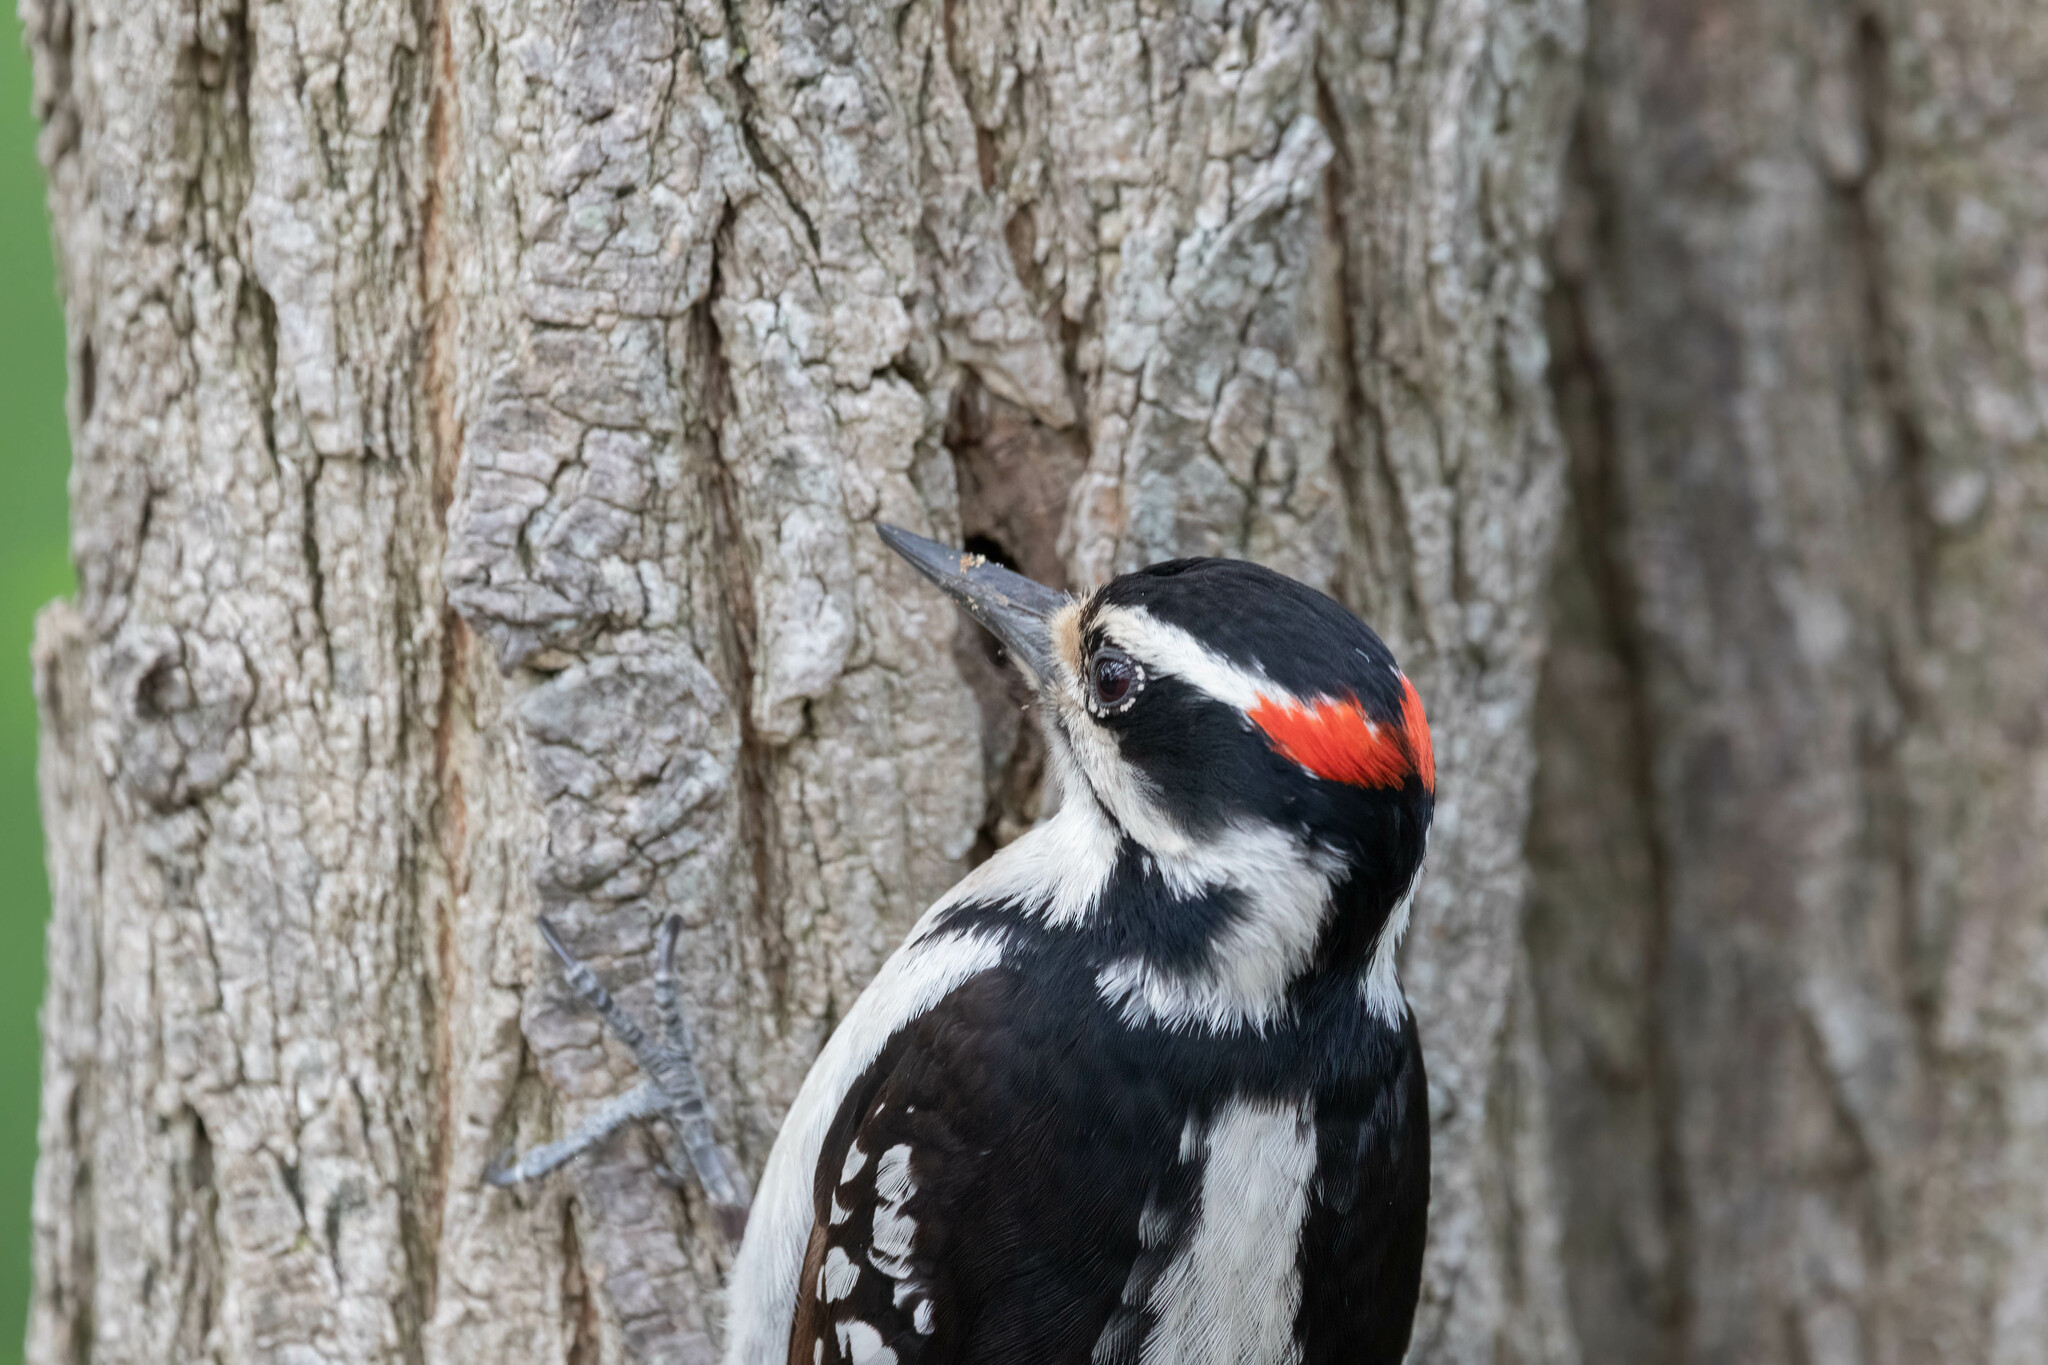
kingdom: Animalia
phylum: Chordata
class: Aves
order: Piciformes
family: Picidae
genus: Leuconotopicus
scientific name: Leuconotopicus villosus
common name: Hairy woodpecker
